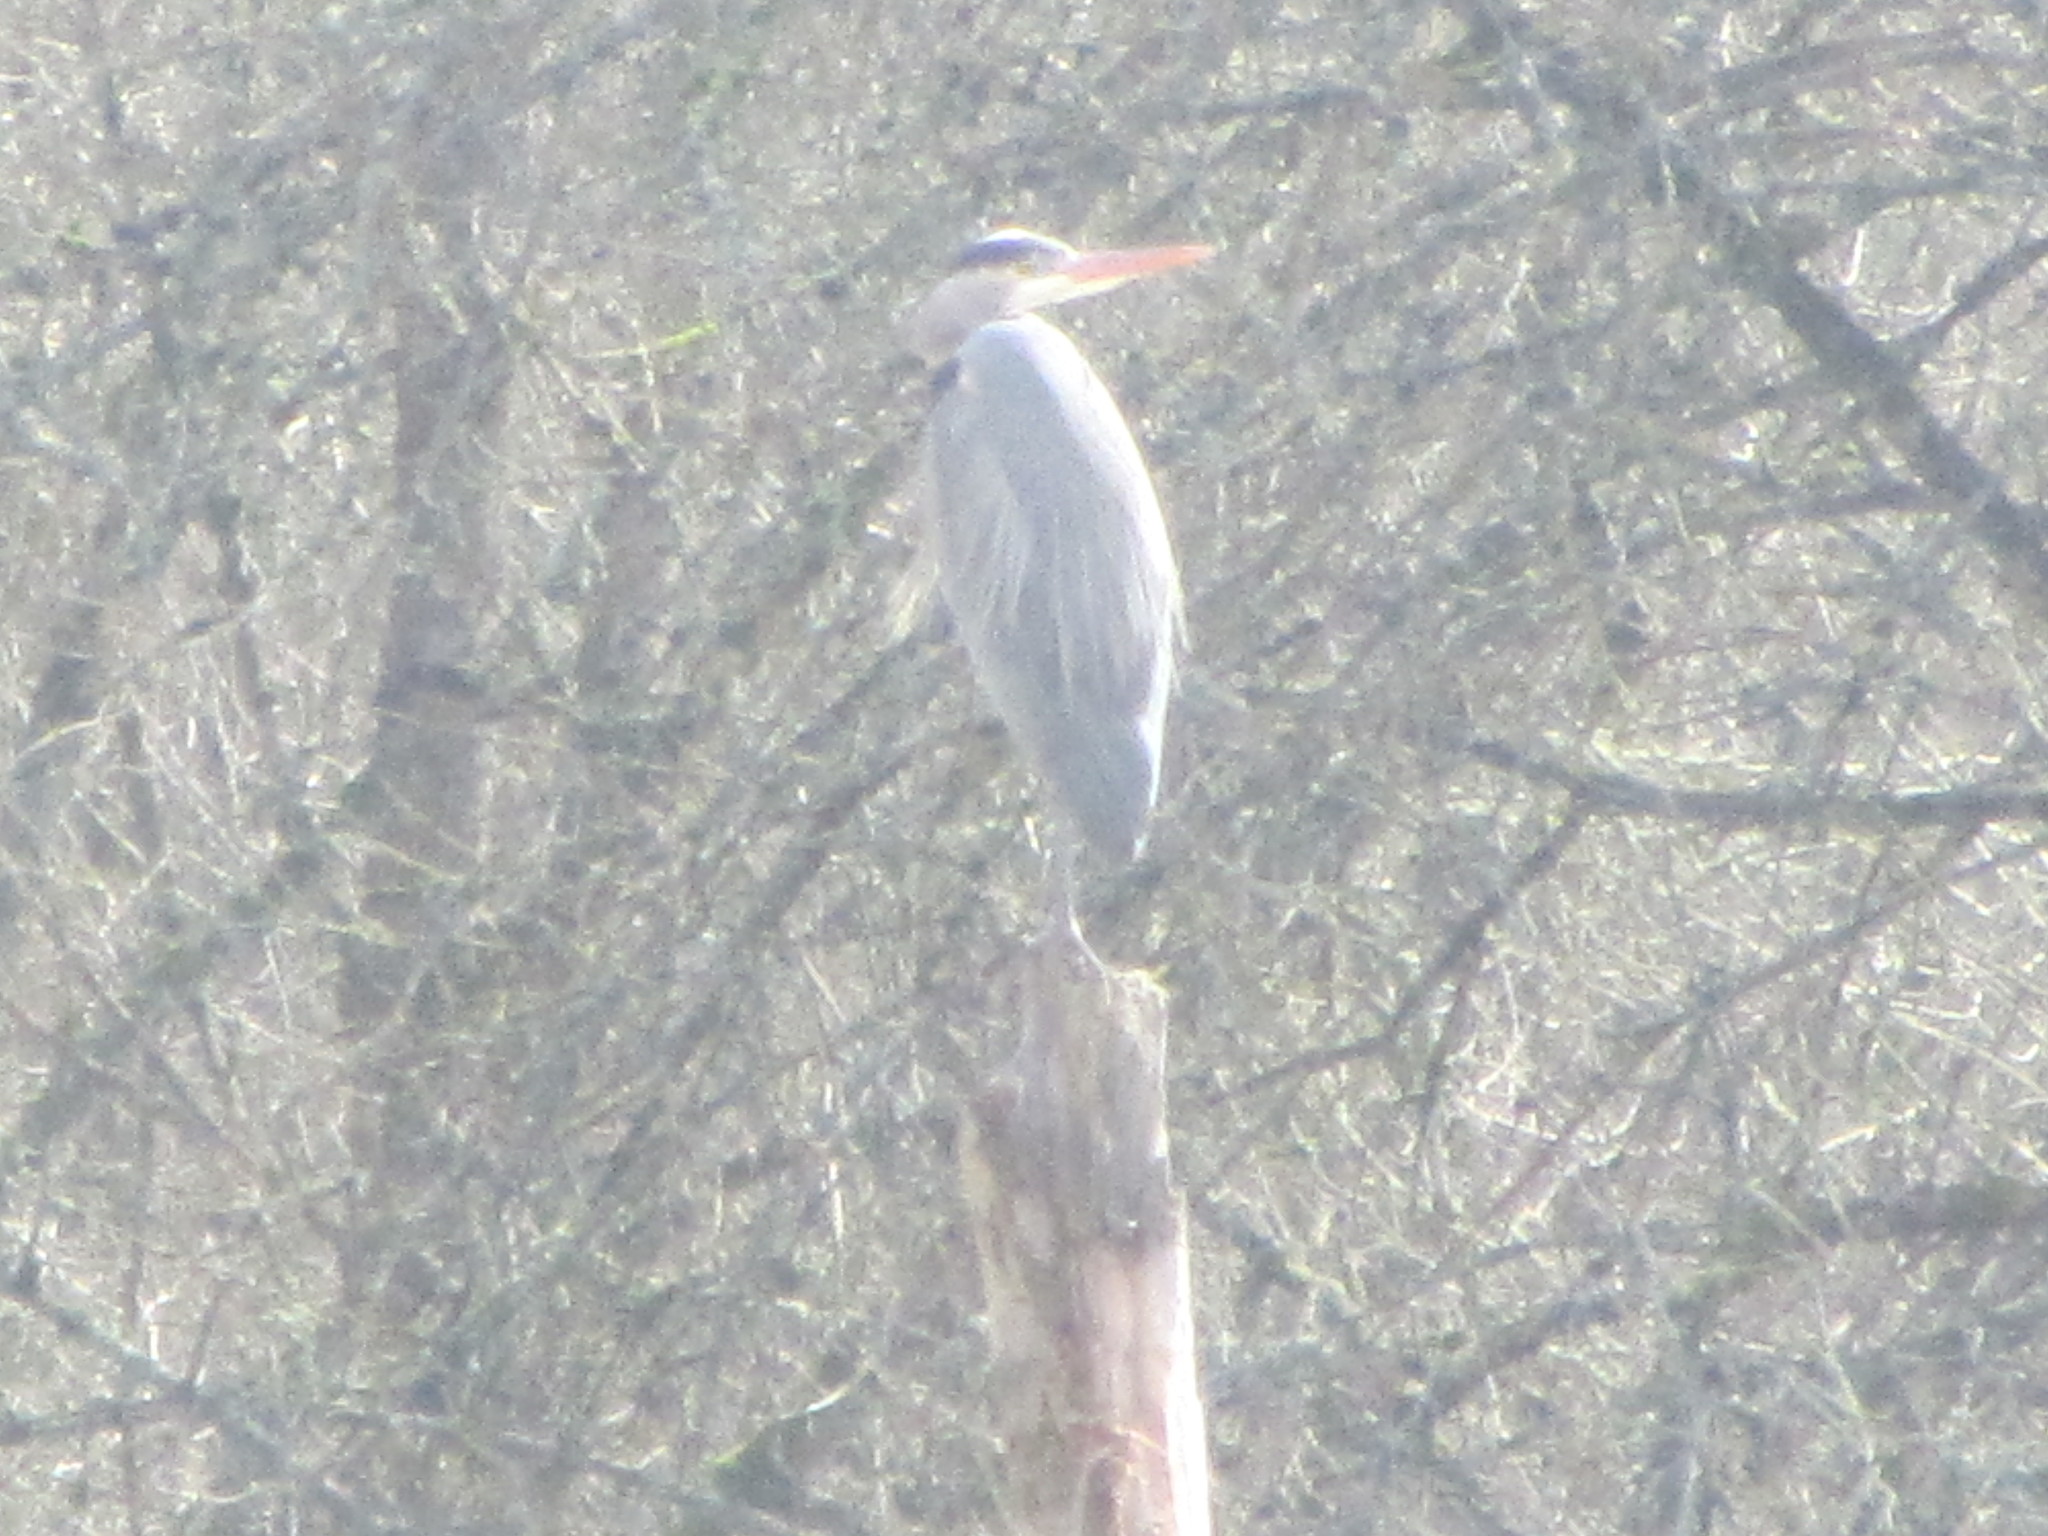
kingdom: Animalia
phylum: Chordata
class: Aves
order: Pelecaniformes
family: Ardeidae
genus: Ardea
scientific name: Ardea herodias
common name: Great blue heron
